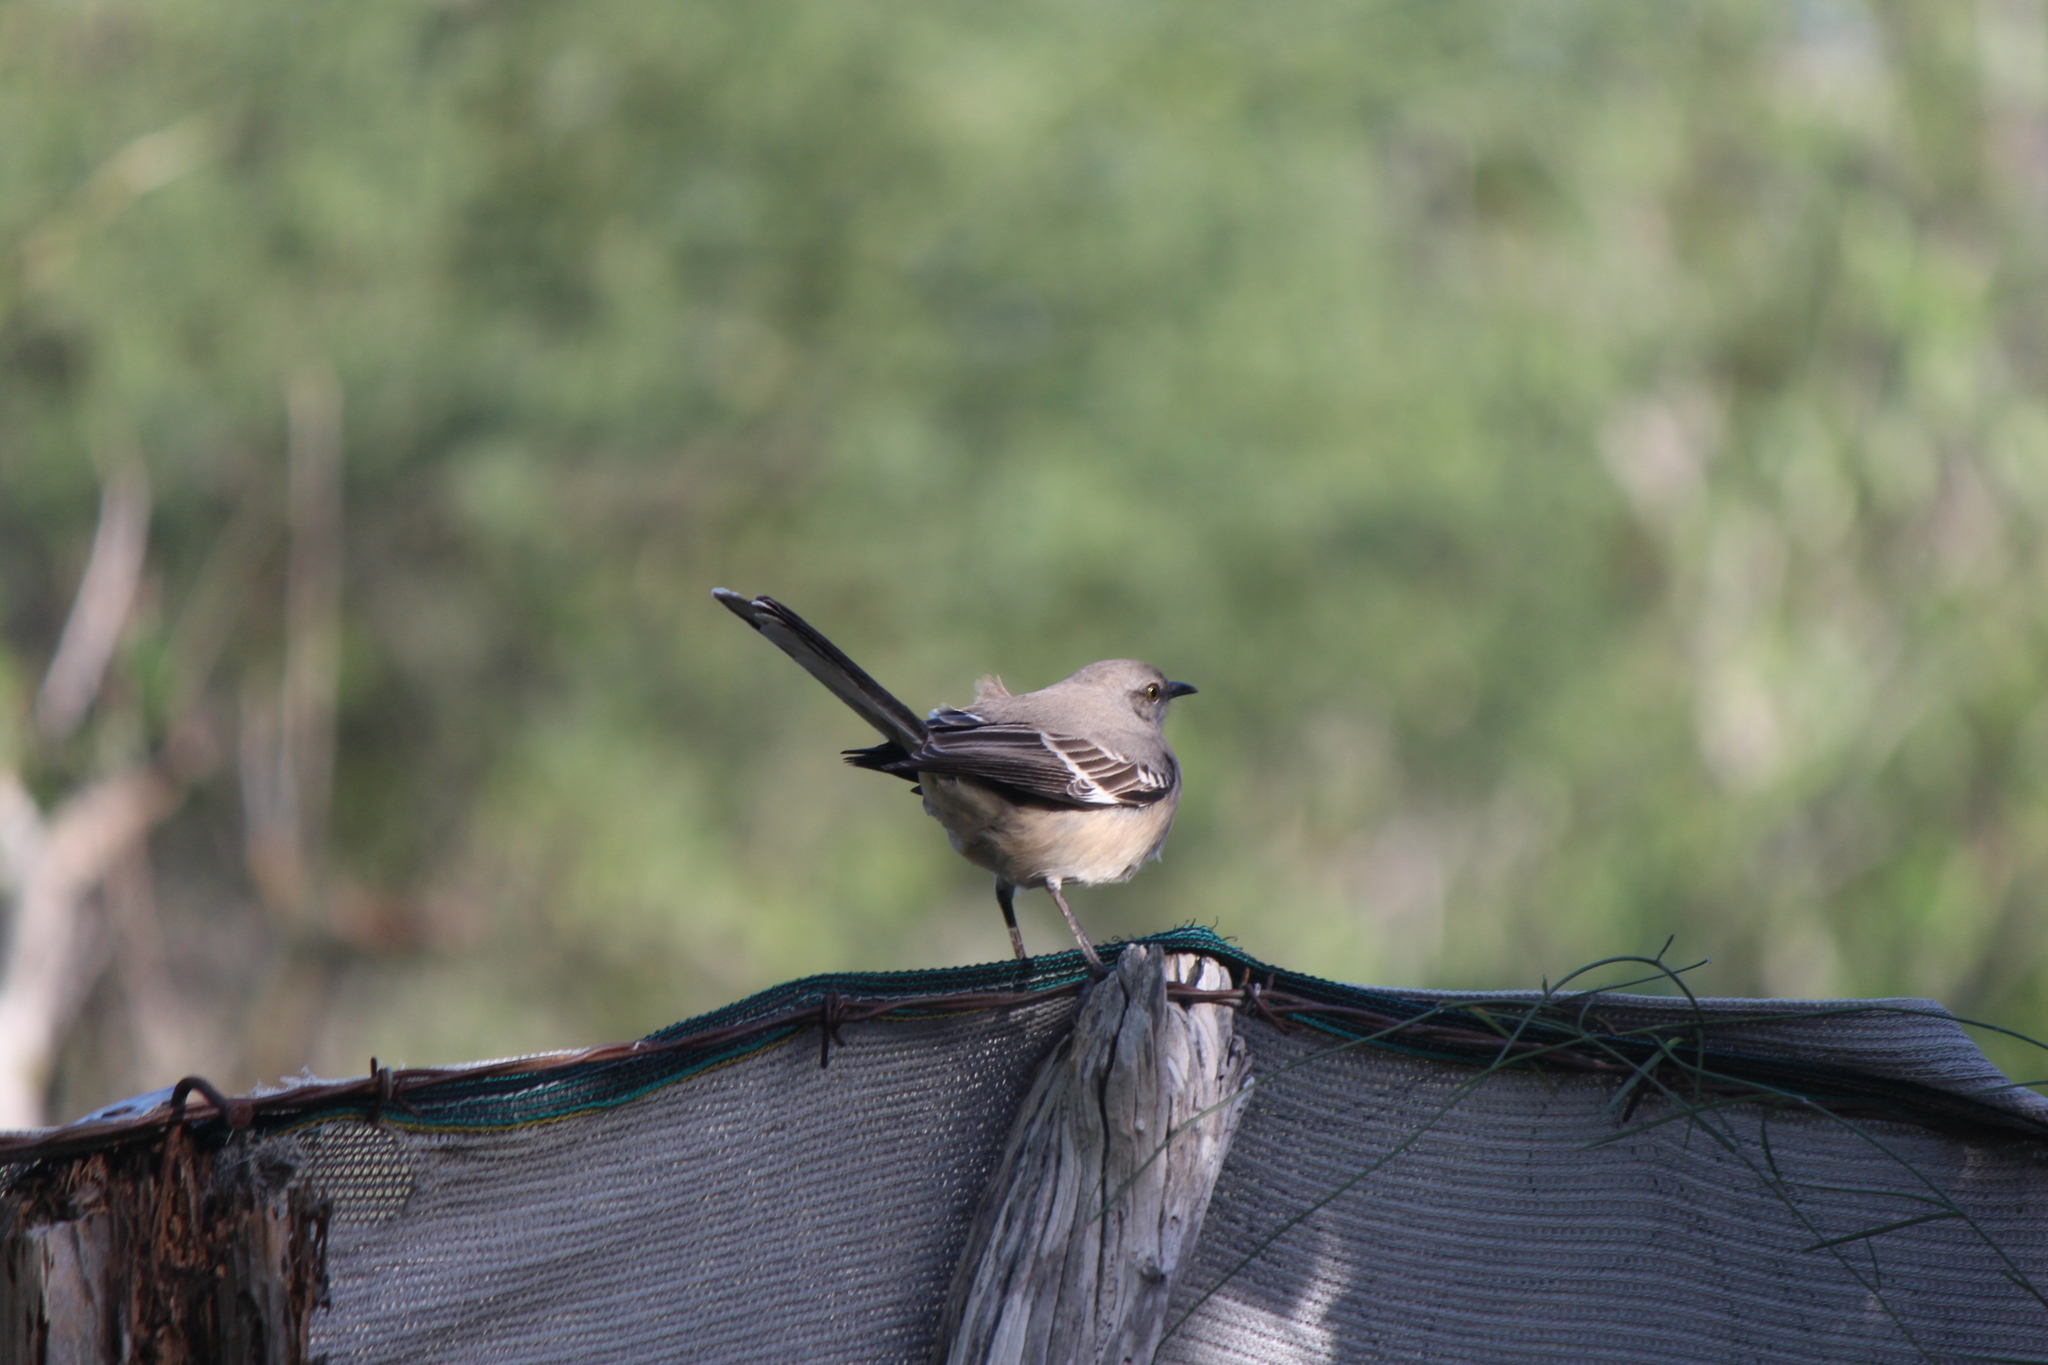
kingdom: Animalia
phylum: Chordata
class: Aves
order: Passeriformes
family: Mimidae
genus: Mimus
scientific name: Mimus polyglottos
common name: Northern mockingbird
